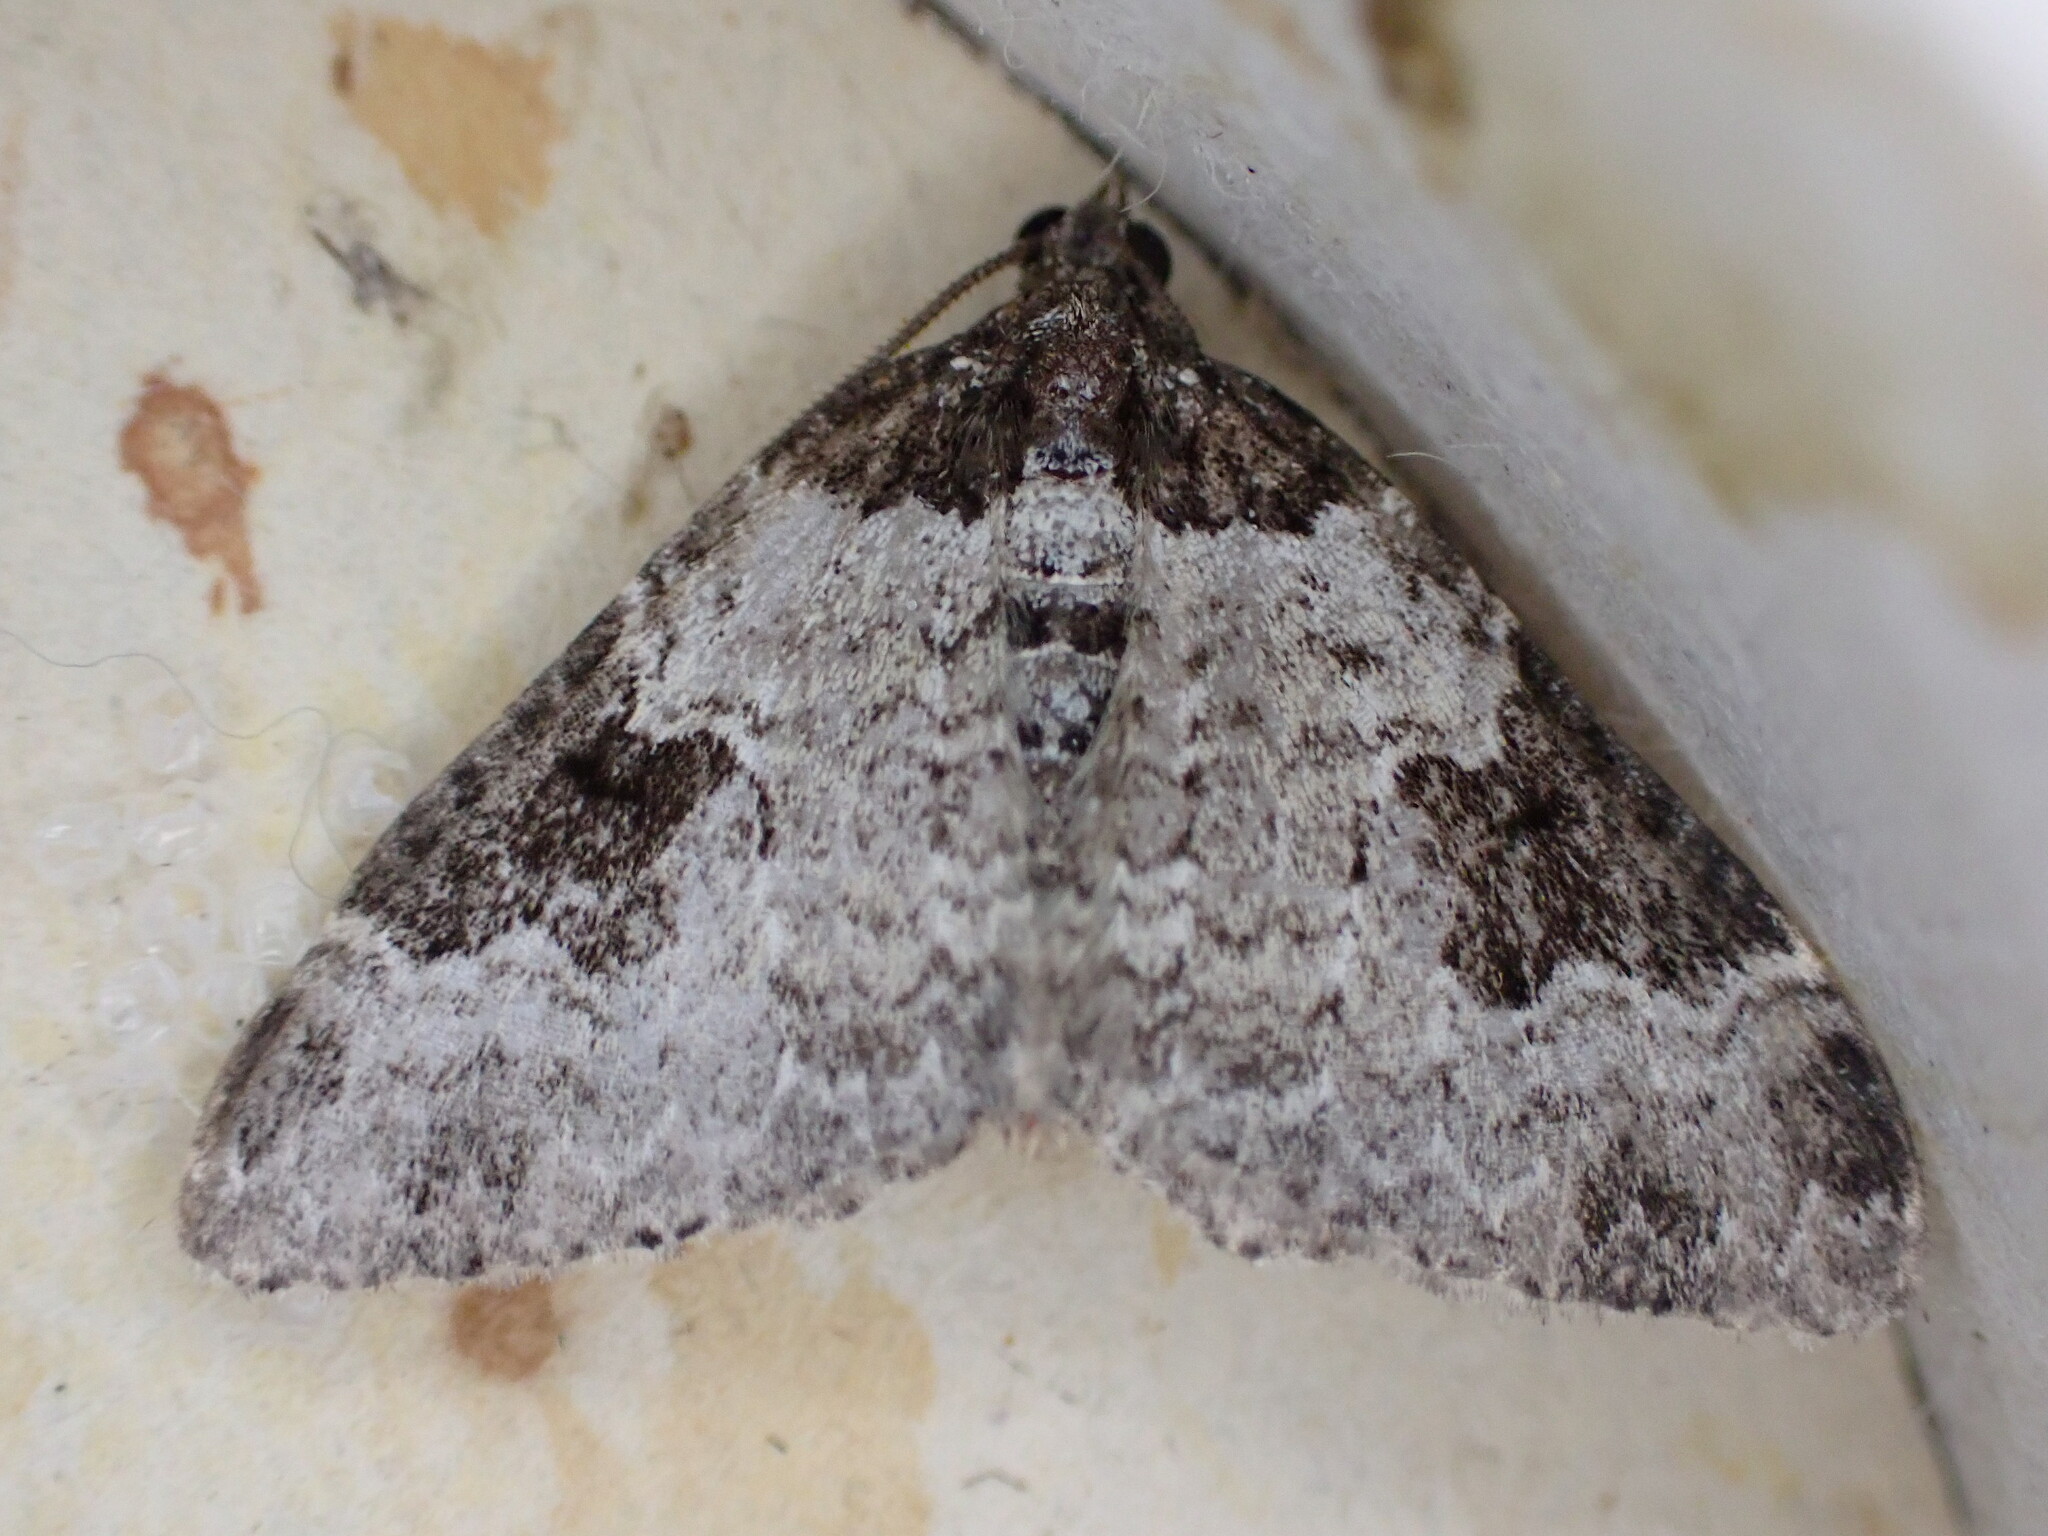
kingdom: Animalia
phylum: Arthropoda
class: Insecta
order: Lepidoptera
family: Geometridae
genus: Xanthorhoe
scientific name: Xanthorhoe fluctuata
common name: Garden carpet
